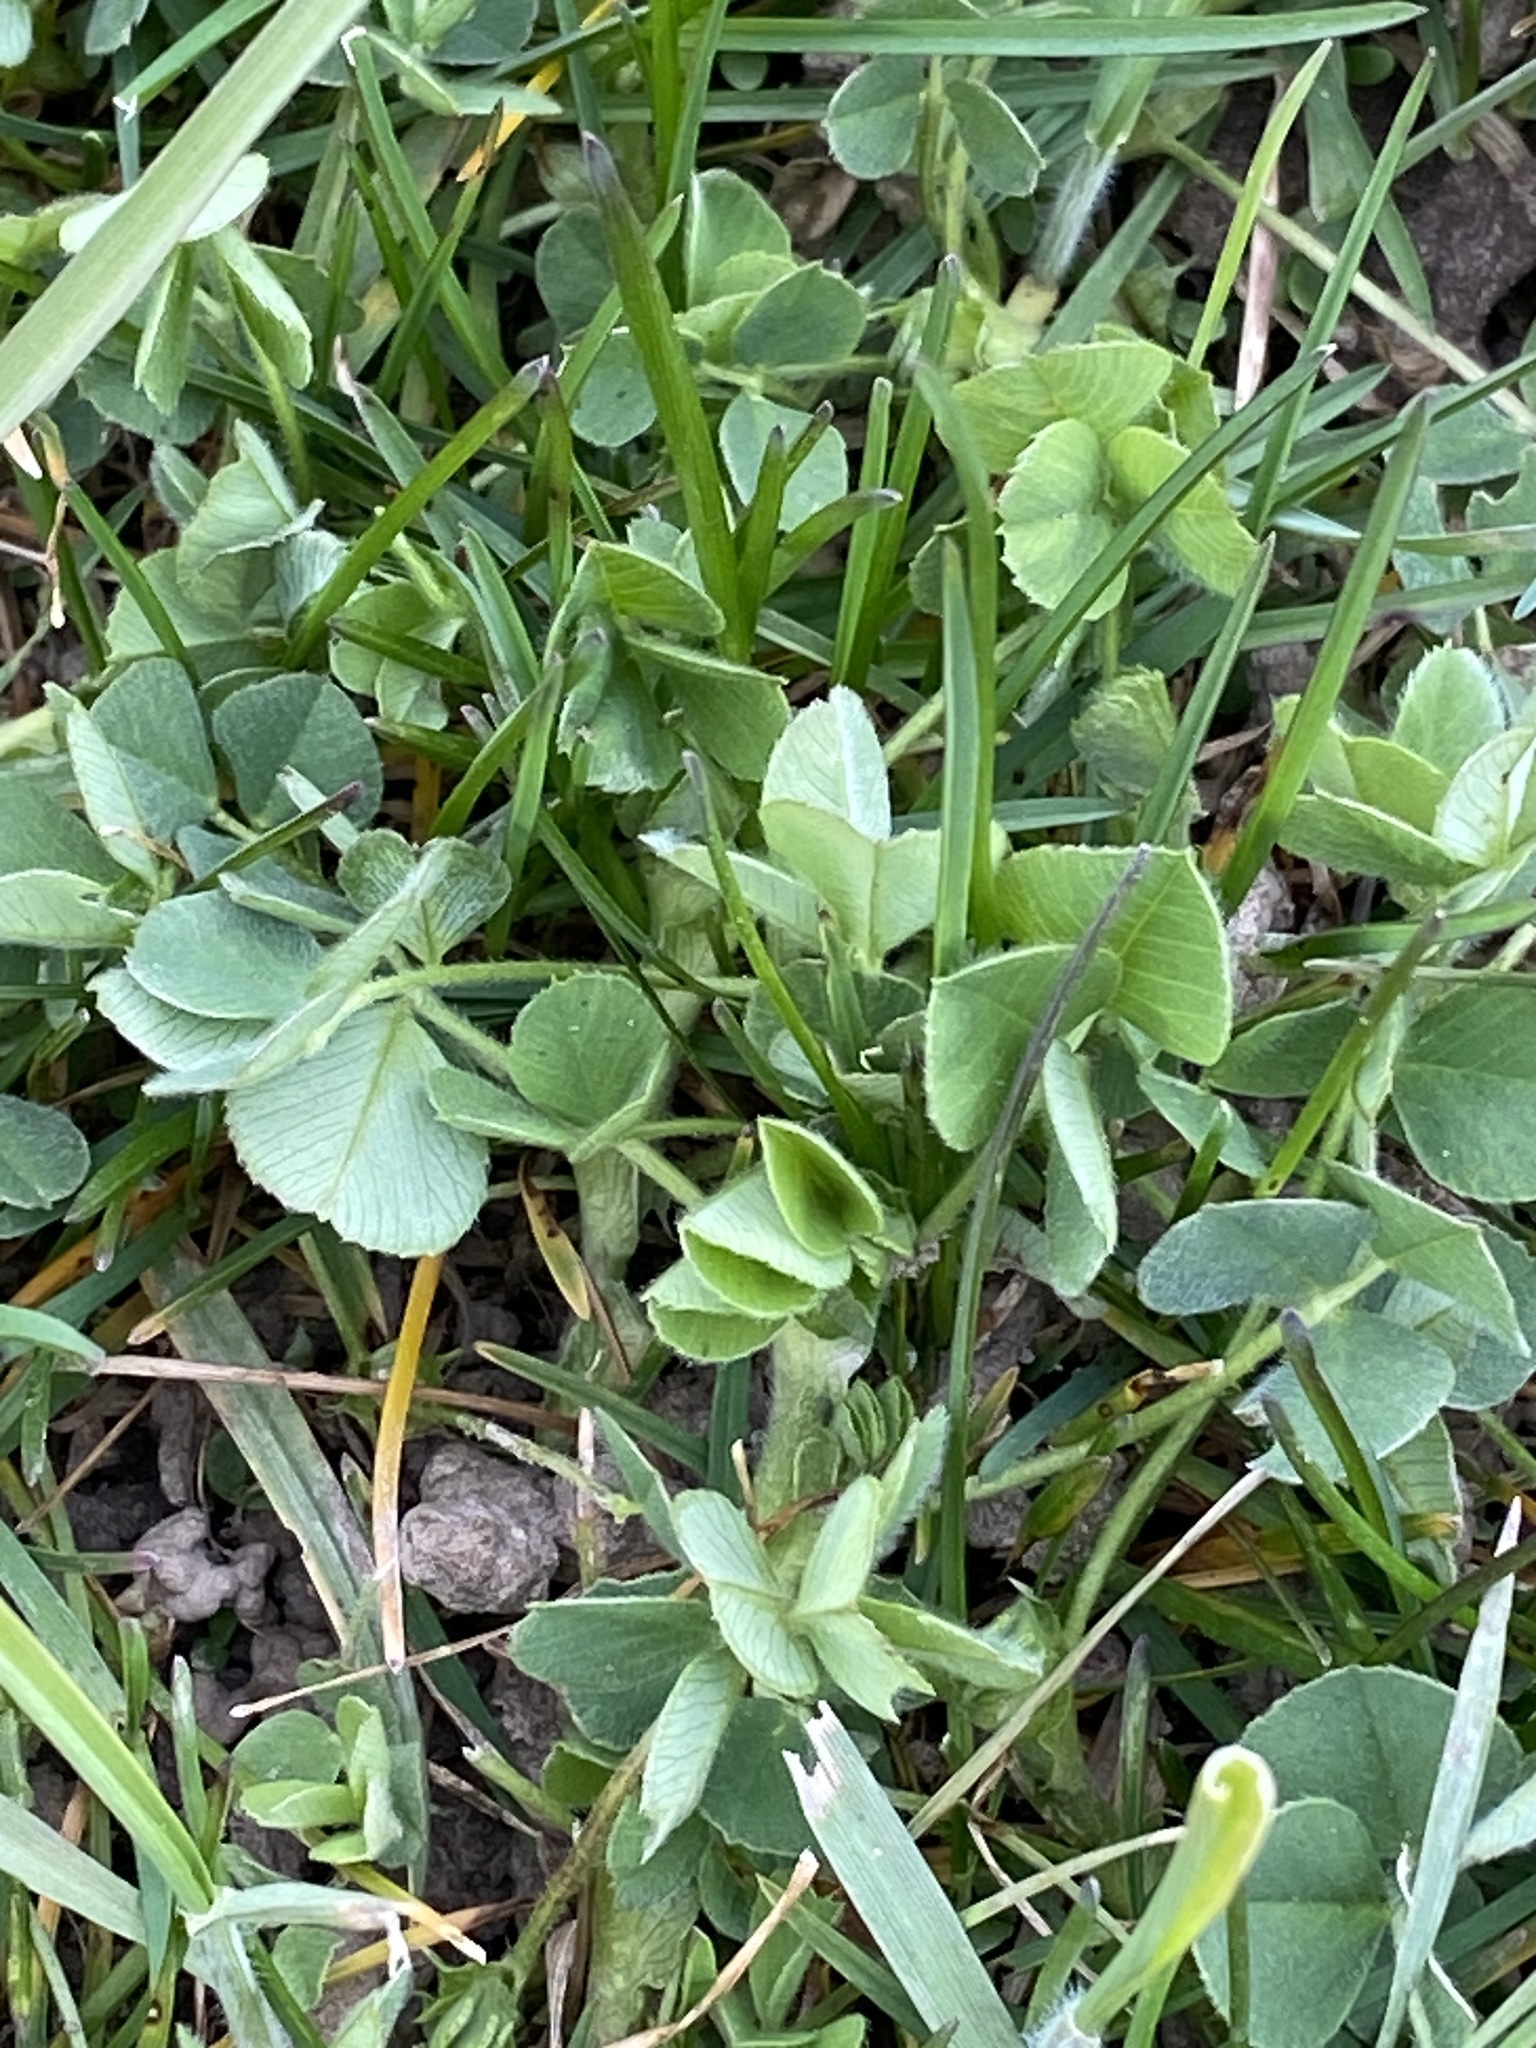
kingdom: Plantae
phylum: Tracheophyta
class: Magnoliopsida
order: Fabales
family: Fabaceae
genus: Medicago
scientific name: Medicago lupulina
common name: Black medick
